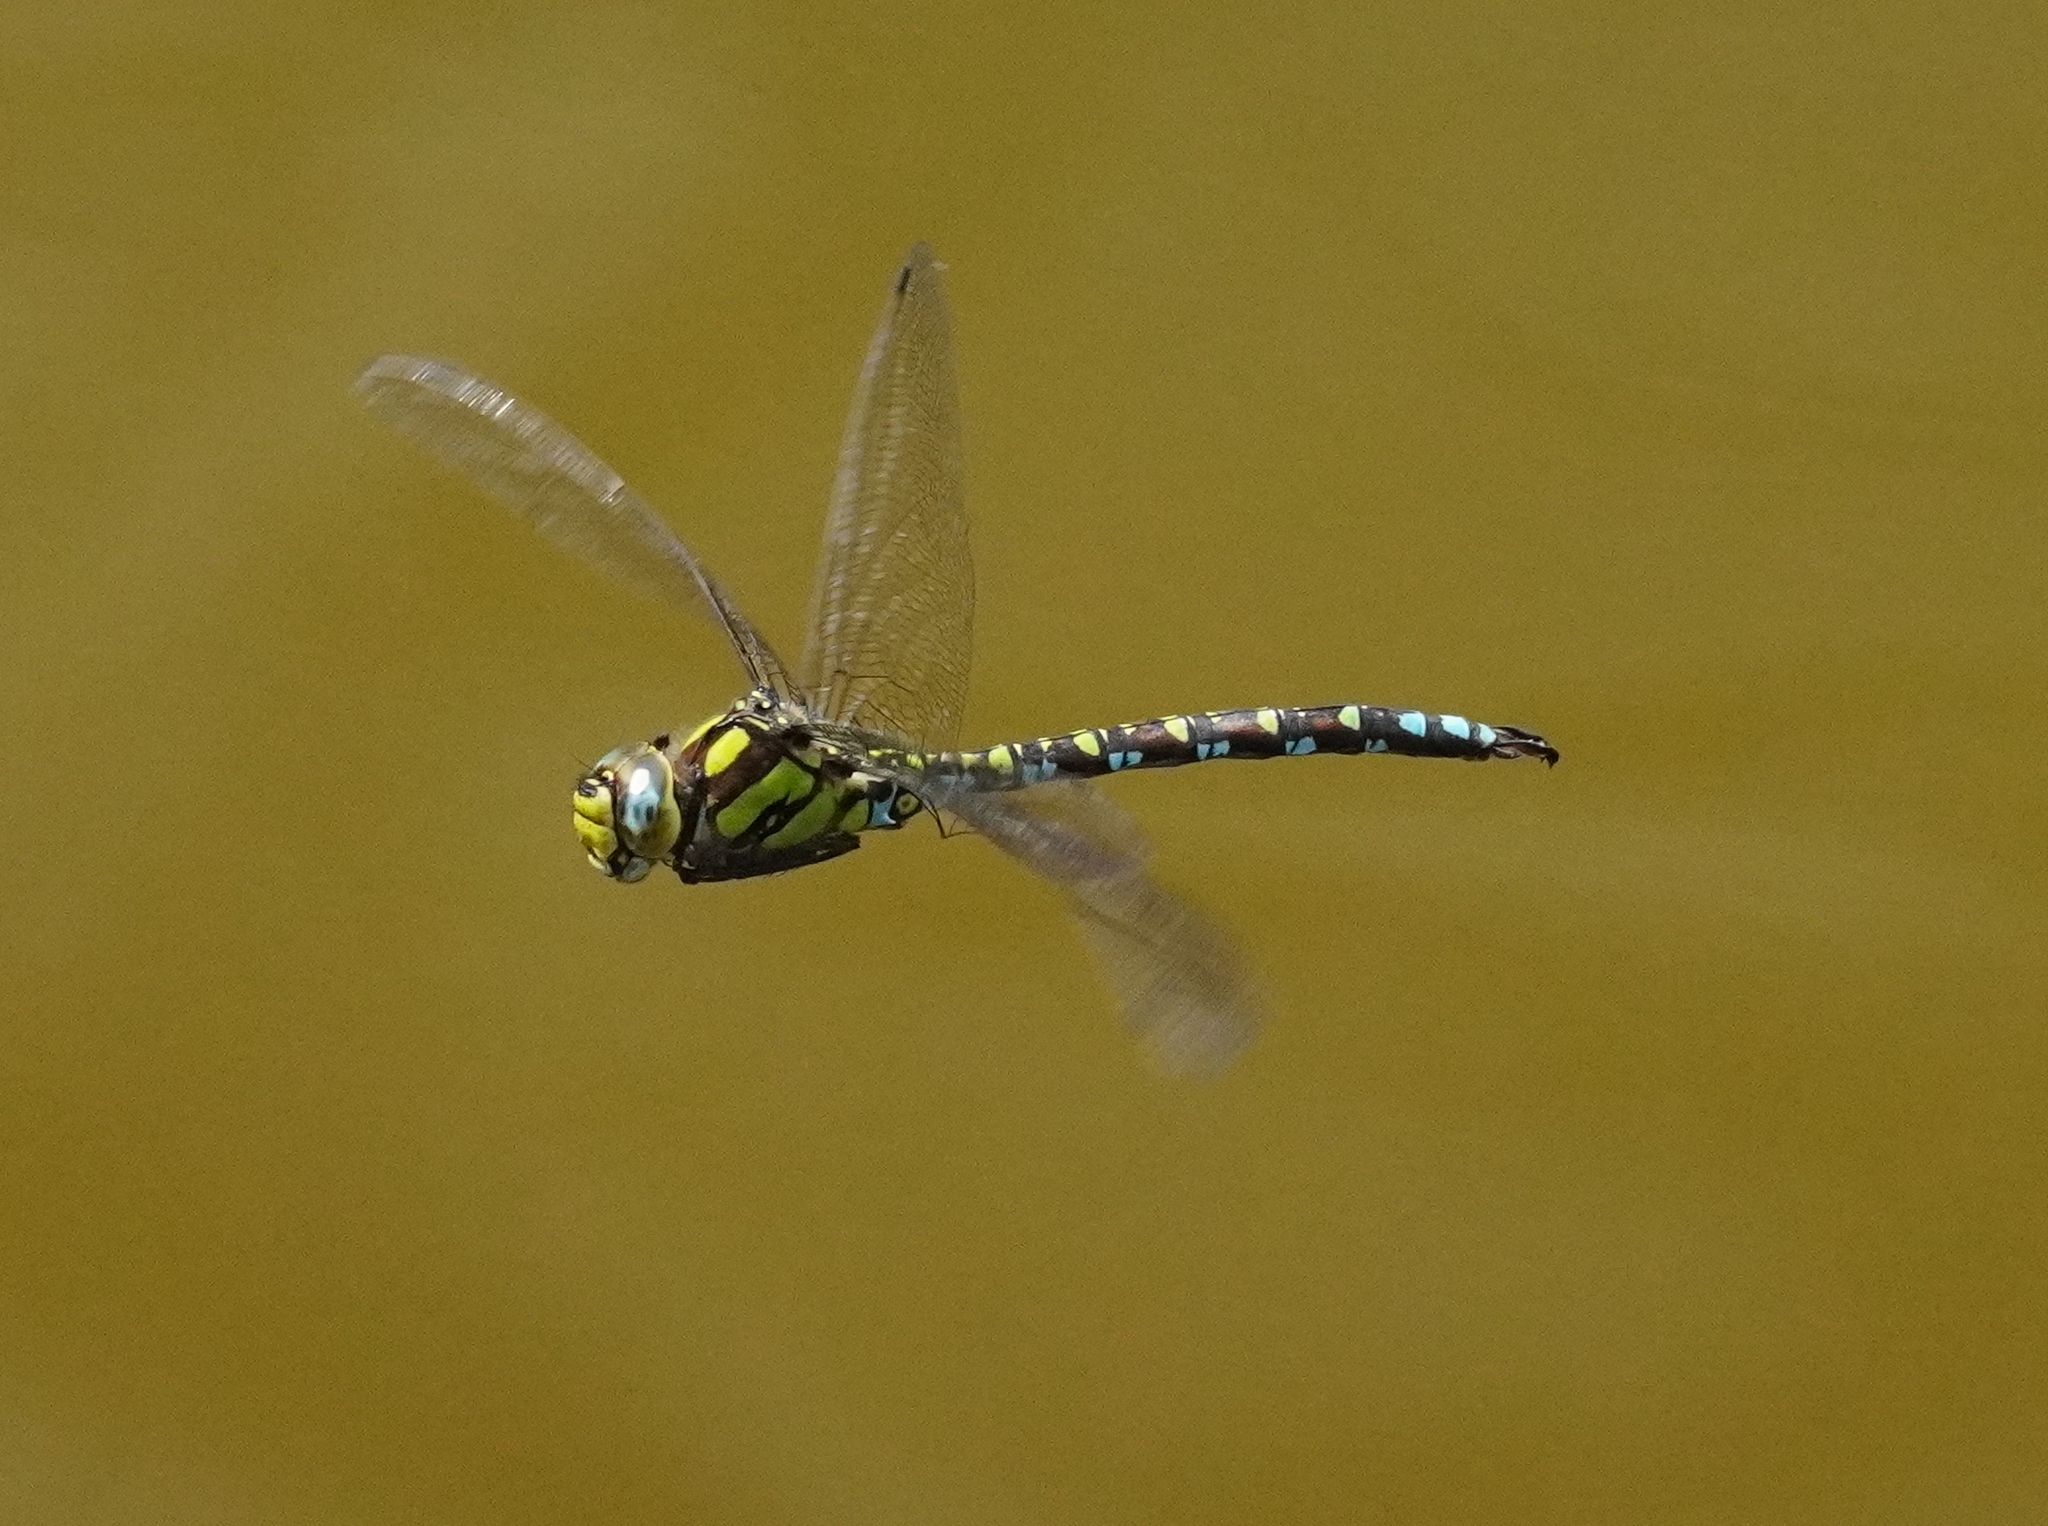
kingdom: Animalia
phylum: Arthropoda
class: Insecta
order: Odonata
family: Aeshnidae
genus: Aeshna
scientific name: Aeshna cyanea
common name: Southern hawker
